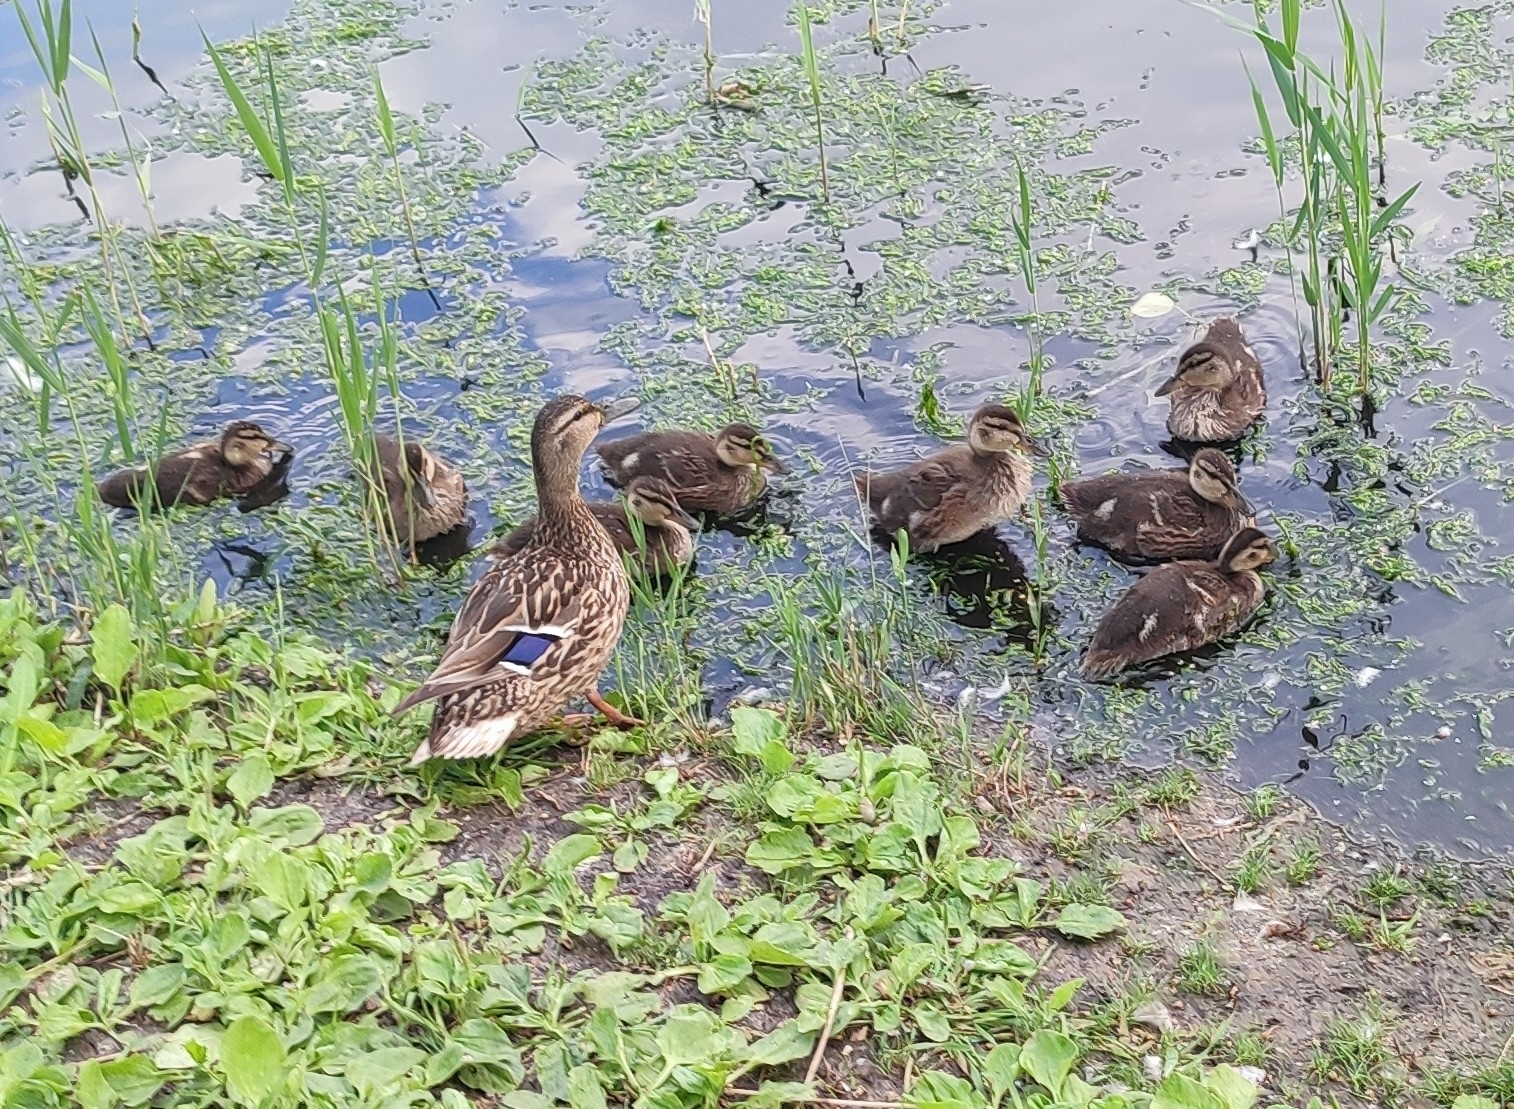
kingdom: Animalia
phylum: Chordata
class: Aves
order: Anseriformes
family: Anatidae
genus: Anas
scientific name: Anas platyrhynchos
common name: Mallard
